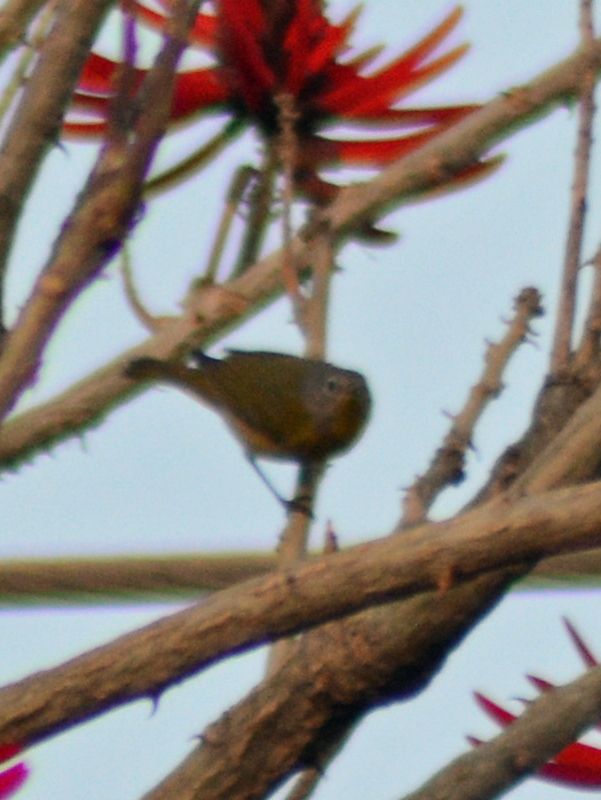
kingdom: Animalia
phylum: Chordata
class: Aves
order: Passeriformes
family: Parulidae
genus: Leiothlypis
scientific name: Leiothlypis ruficapilla
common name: Nashville warbler
